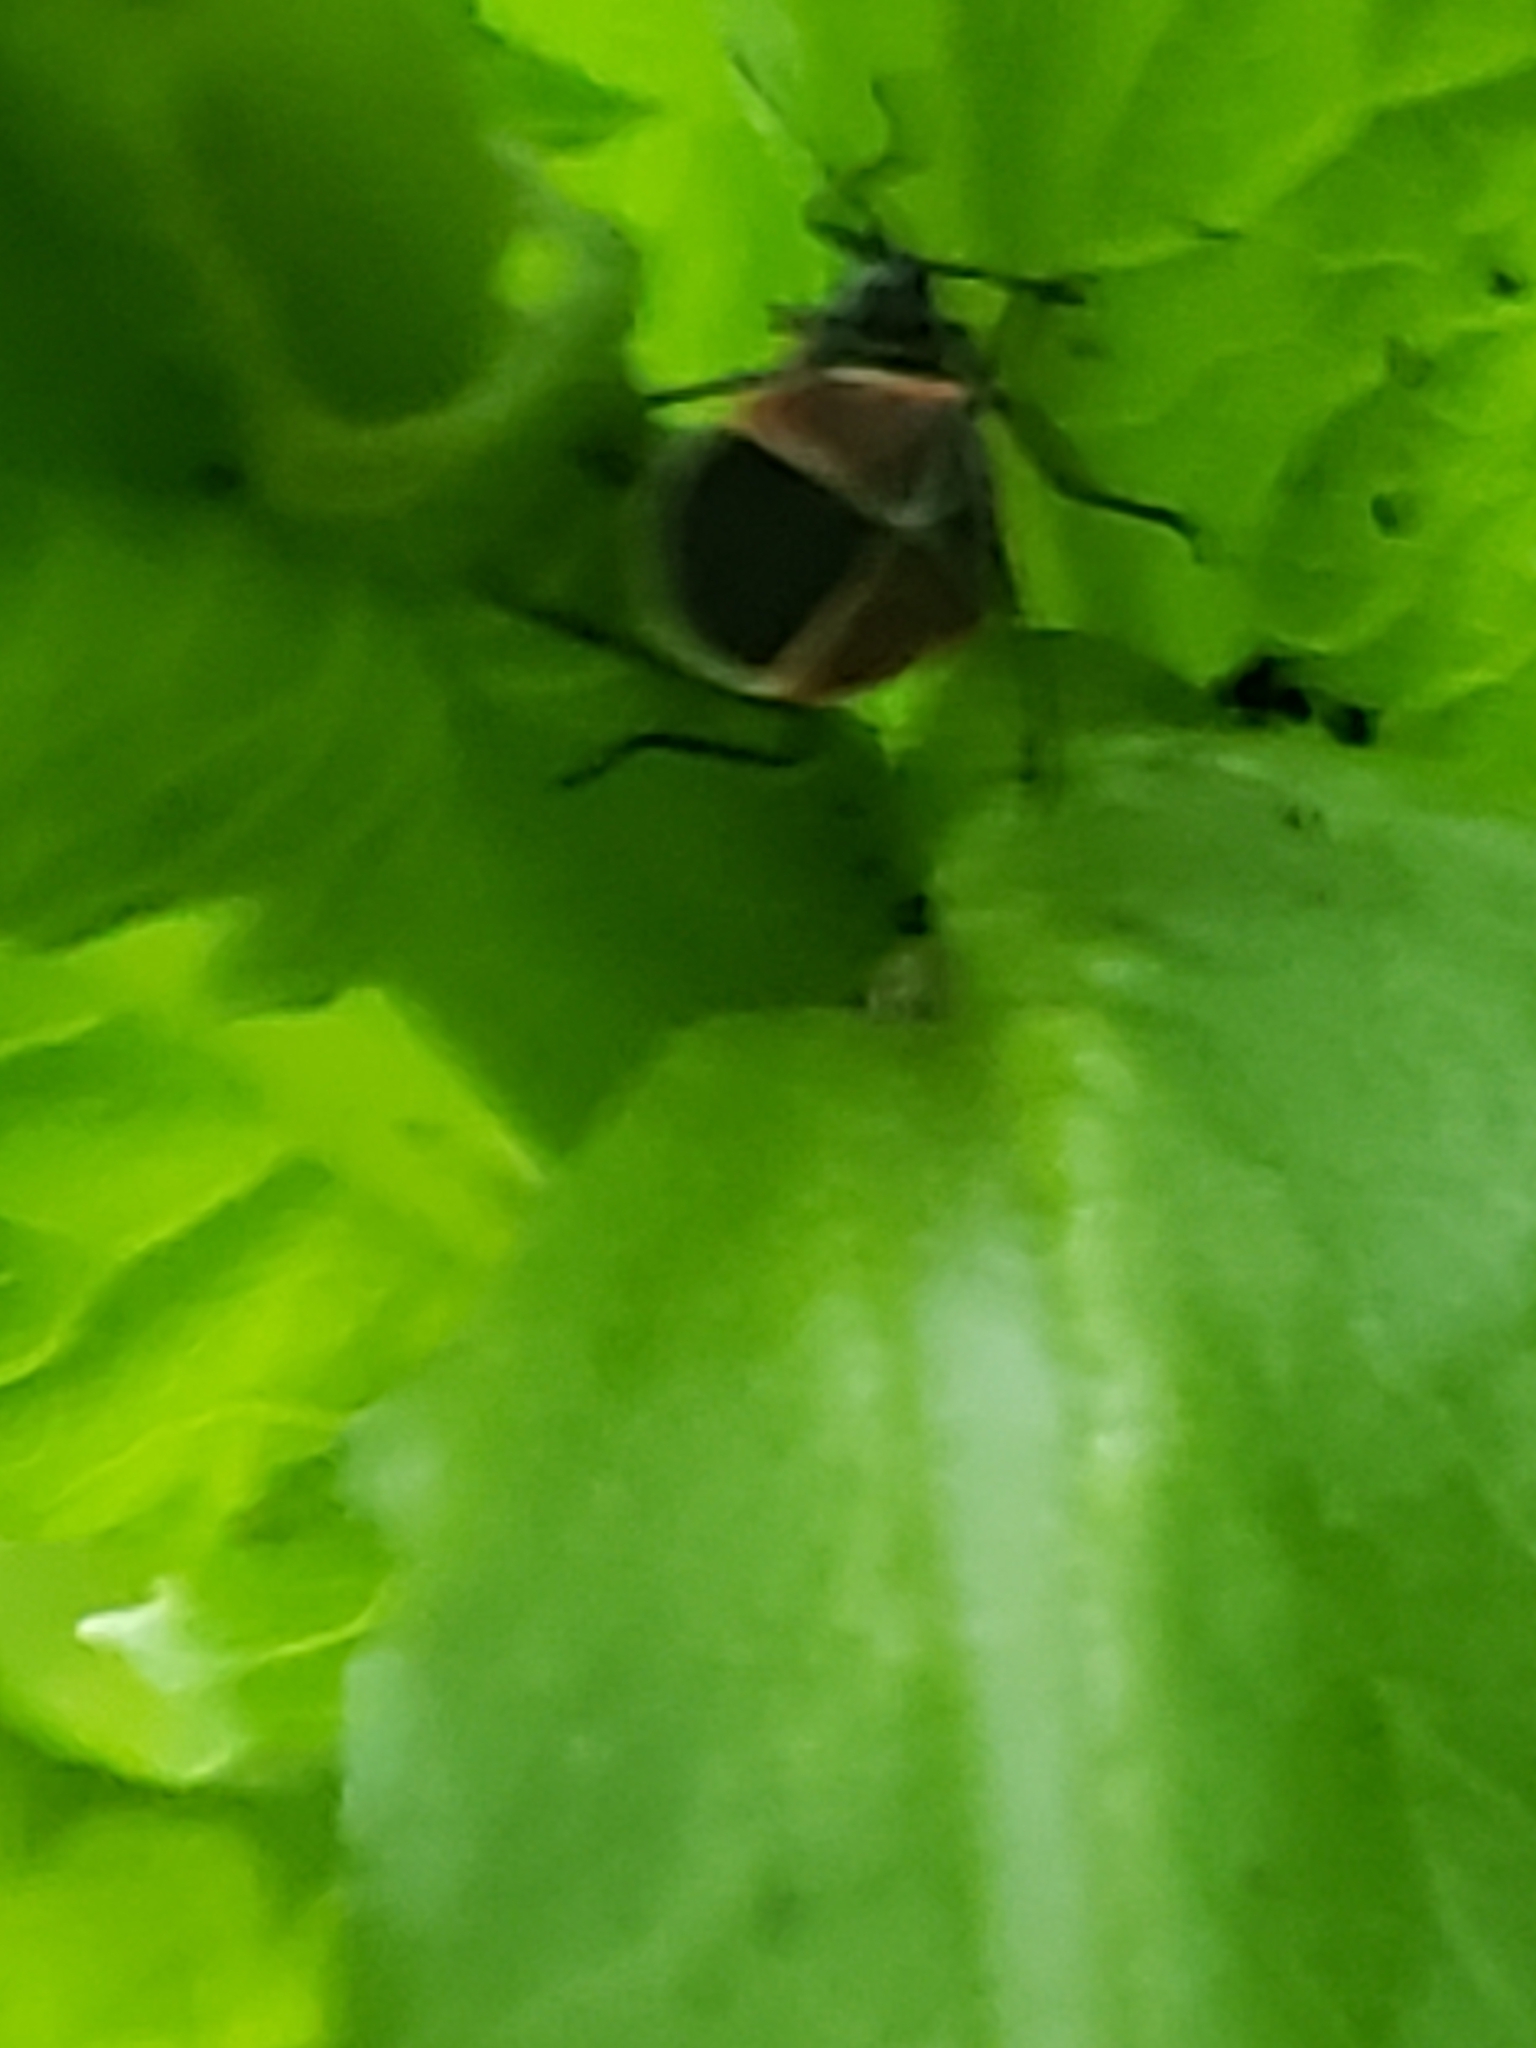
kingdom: Animalia
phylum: Arthropoda
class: Insecta
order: Hemiptera
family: Lygaeidae
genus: Neacoryphus
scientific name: Neacoryphus bicrucis
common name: Lygaeid bug
